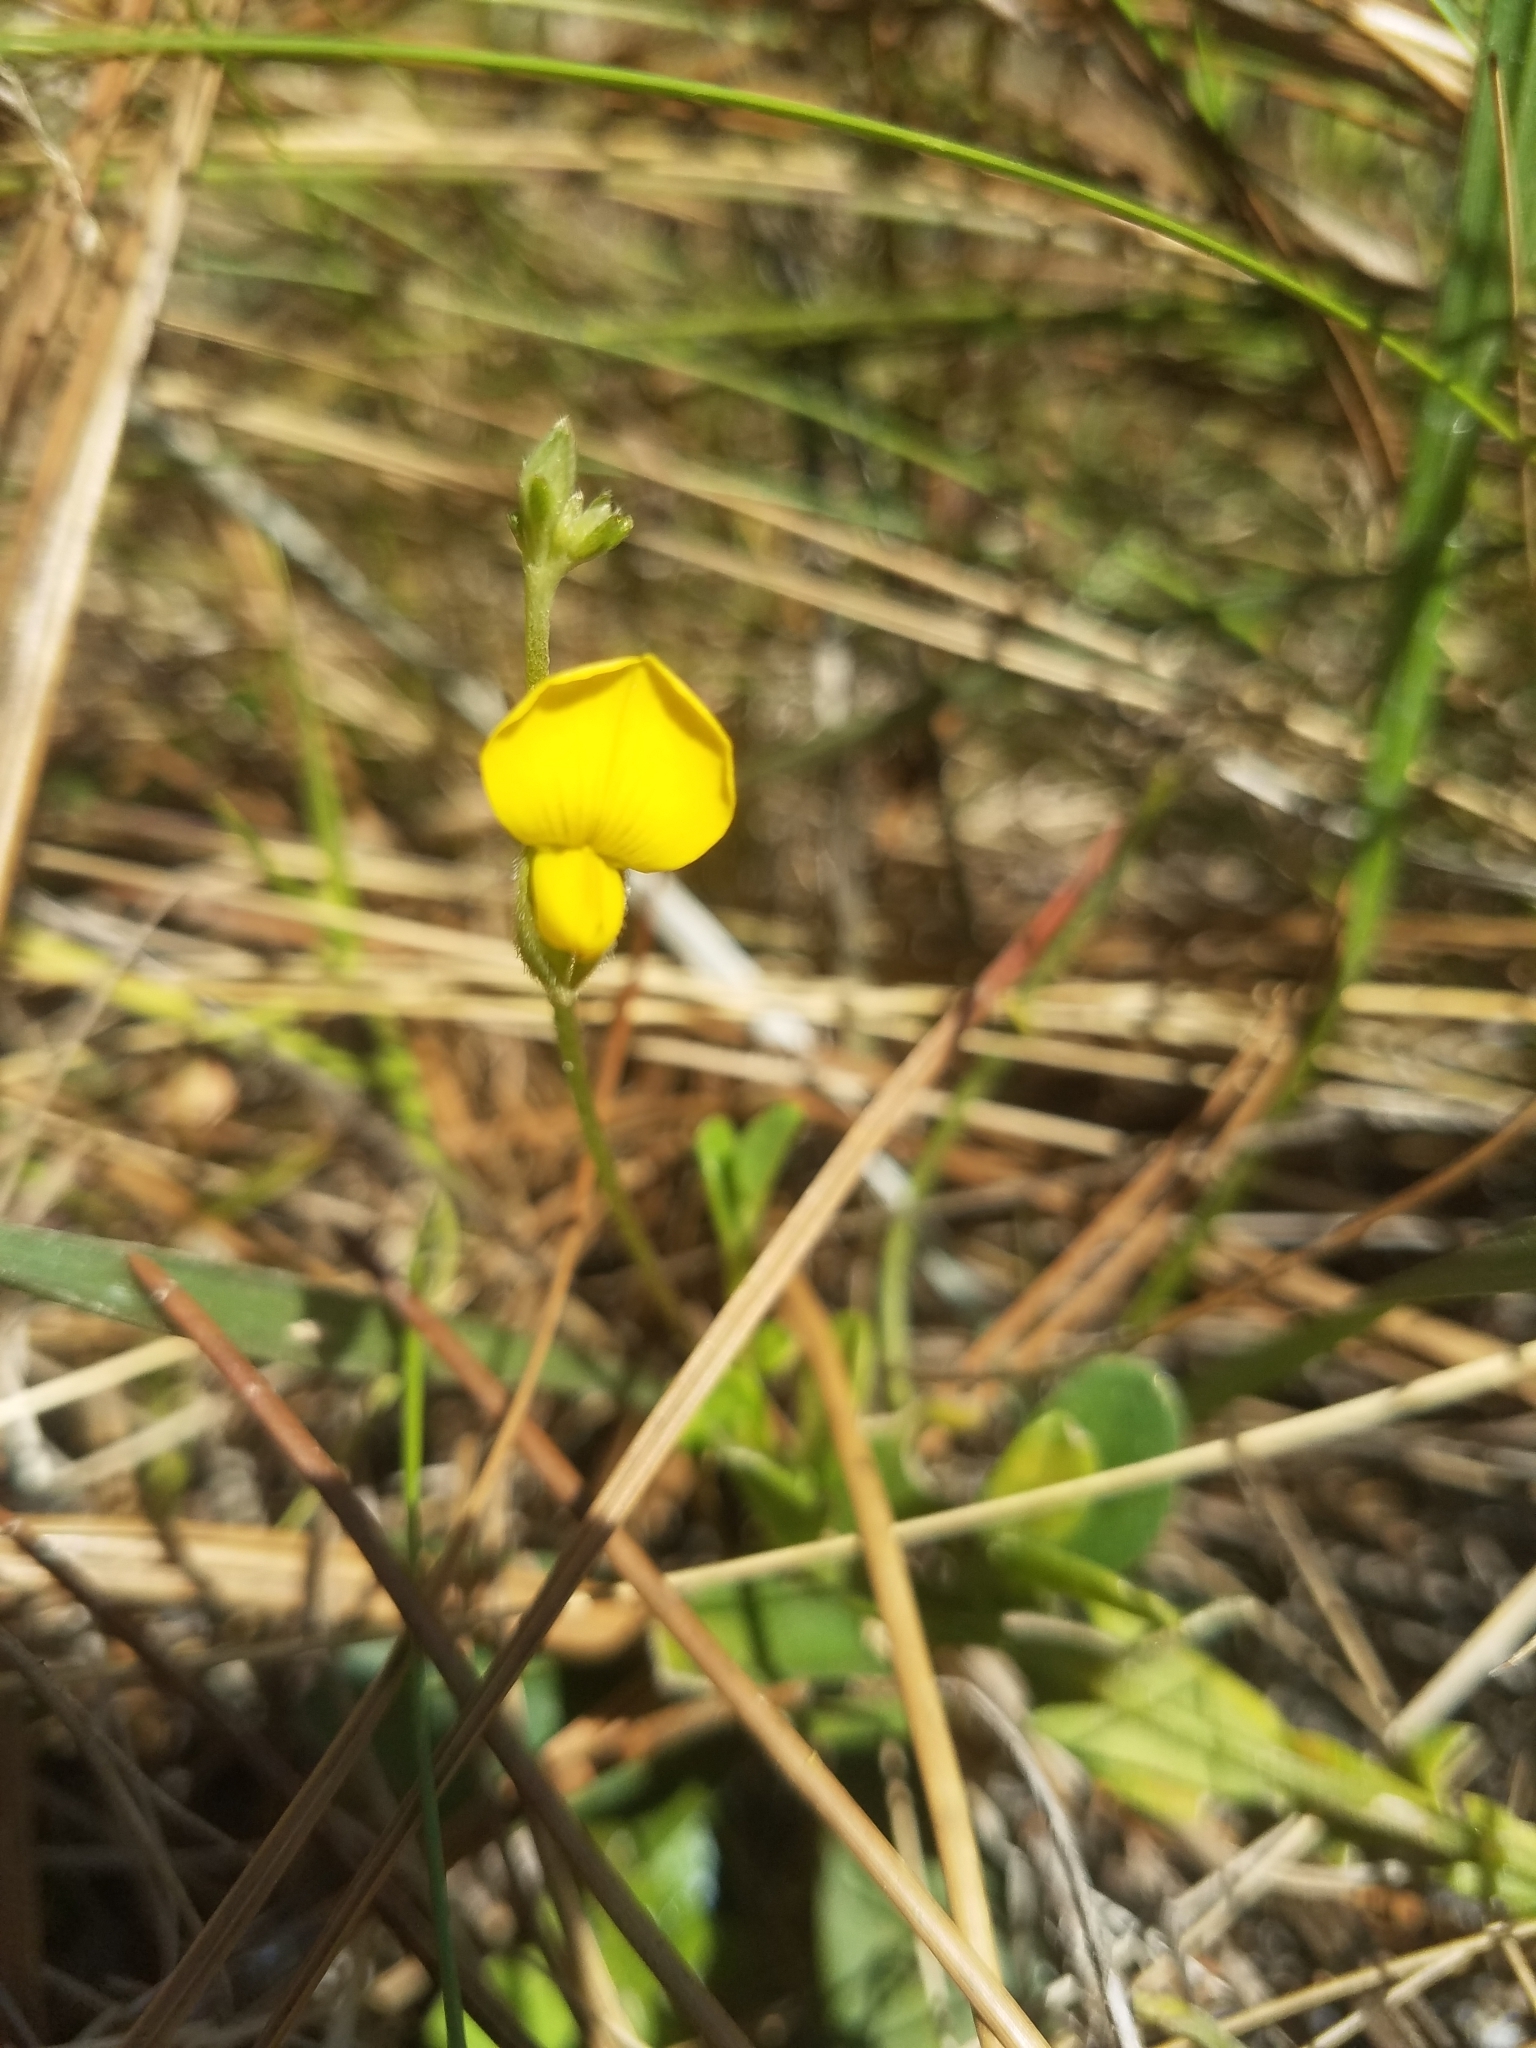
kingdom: Plantae
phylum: Tracheophyta
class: Magnoliopsida
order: Fabales
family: Fabaceae
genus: Crotalaria
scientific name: Crotalaria rotundifolia
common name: Prostrate rattlebox
